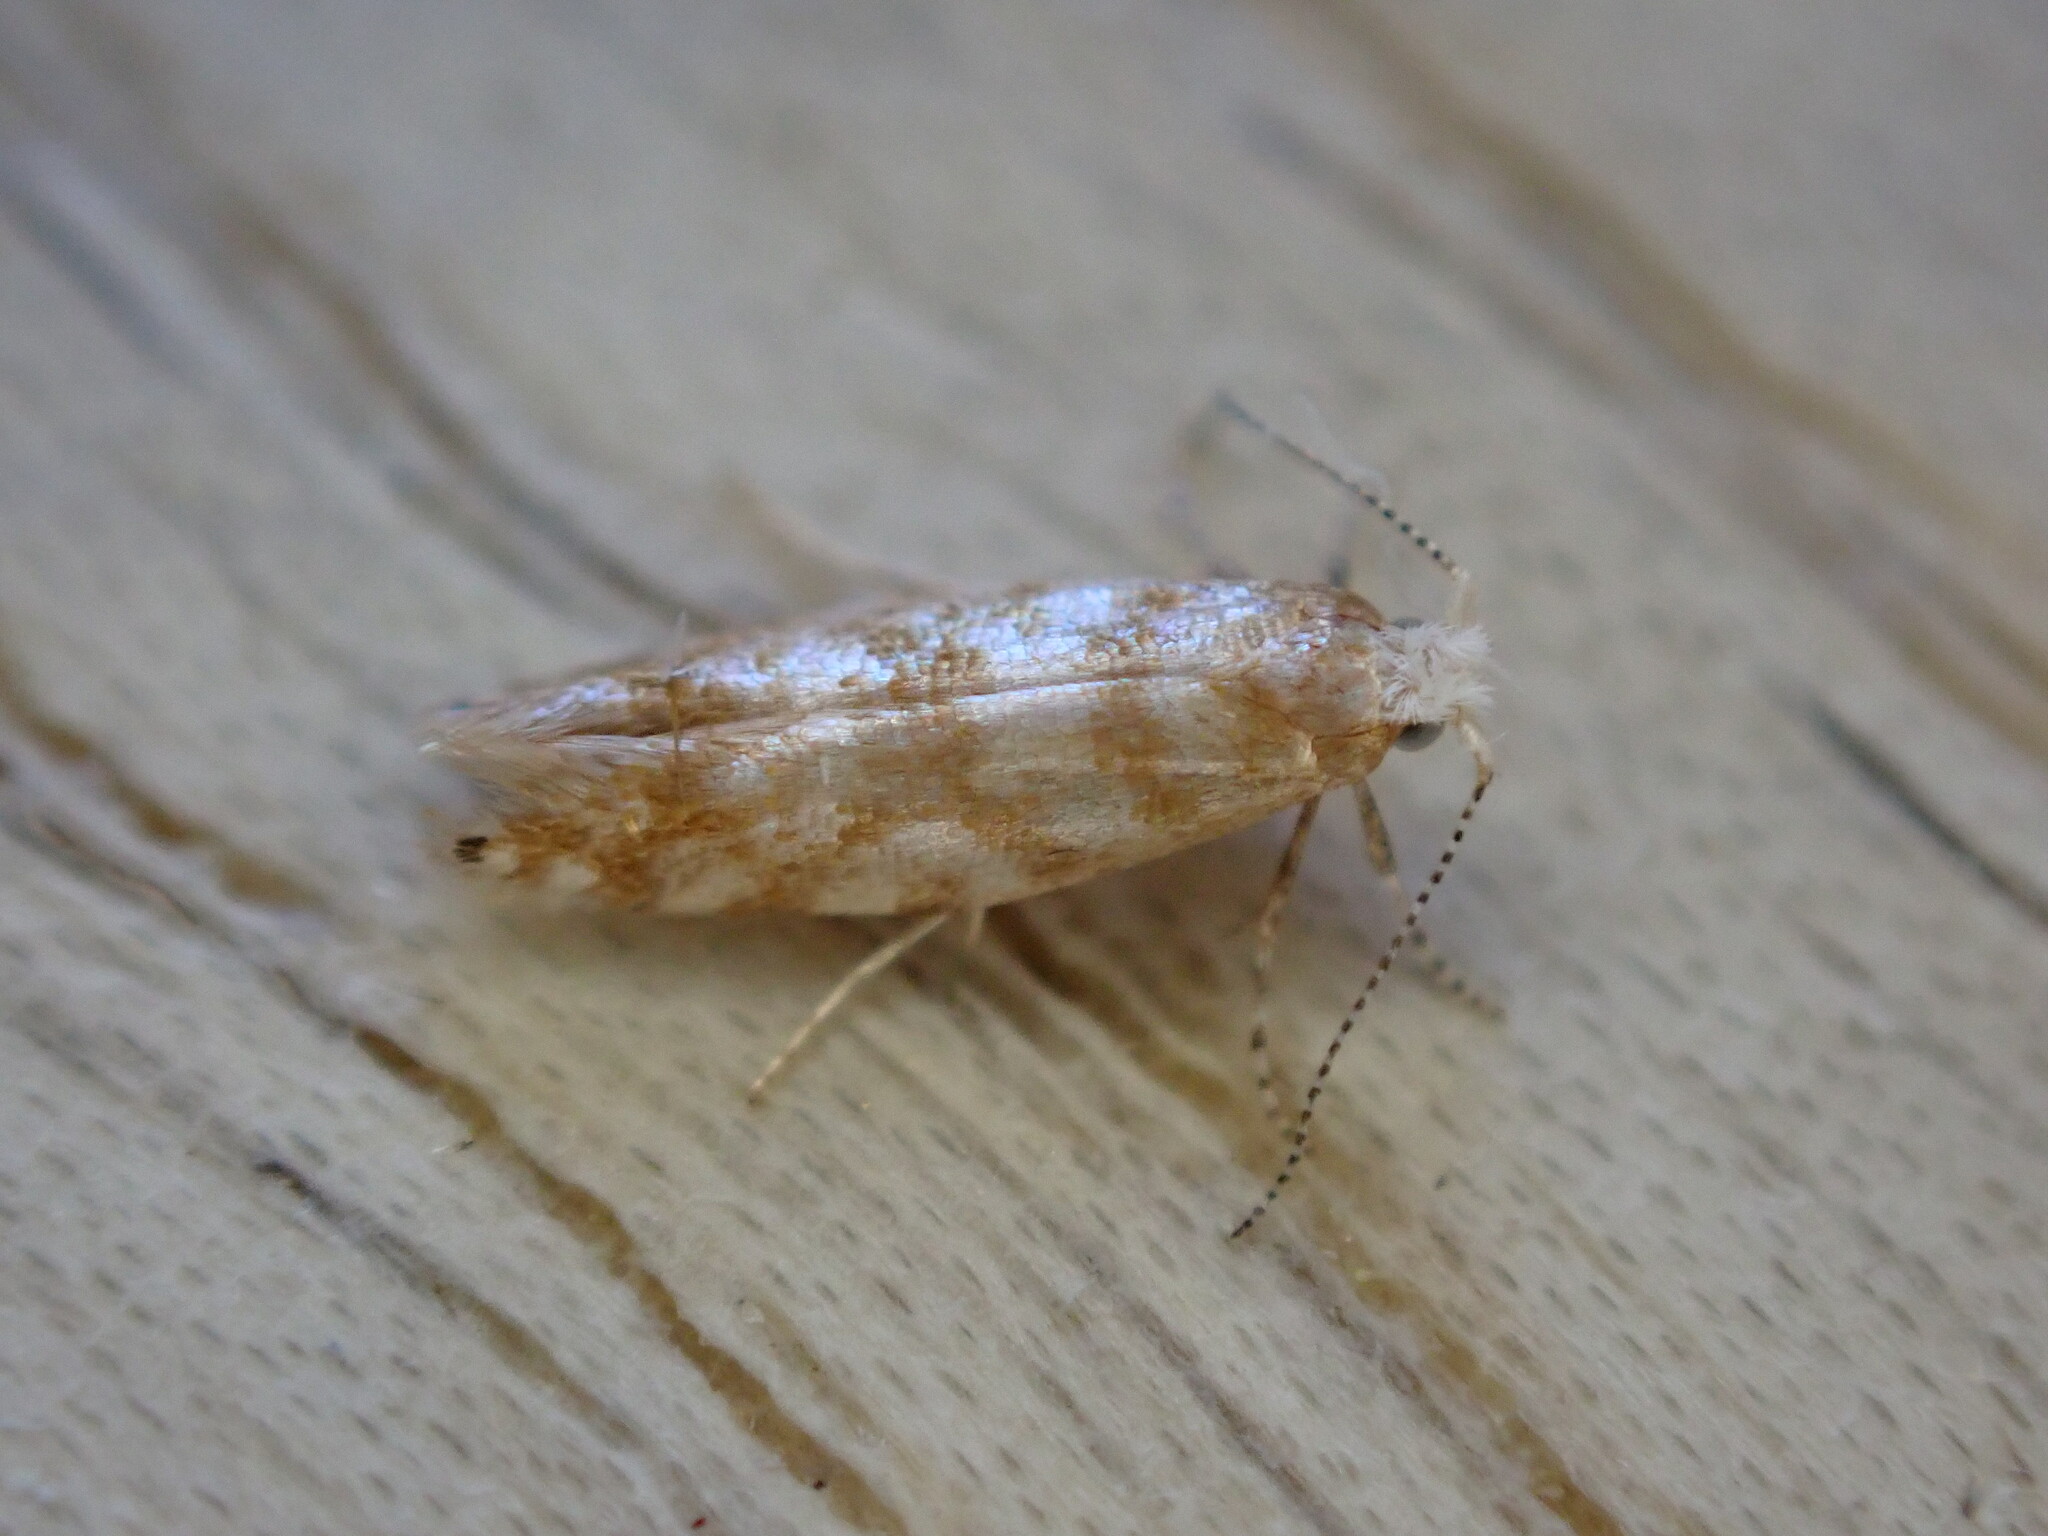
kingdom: Animalia
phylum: Arthropoda
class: Insecta
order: Lepidoptera
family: Argyresthiidae
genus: Argyresthia
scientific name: Argyresthia cupressella
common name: Cypress tip moth
